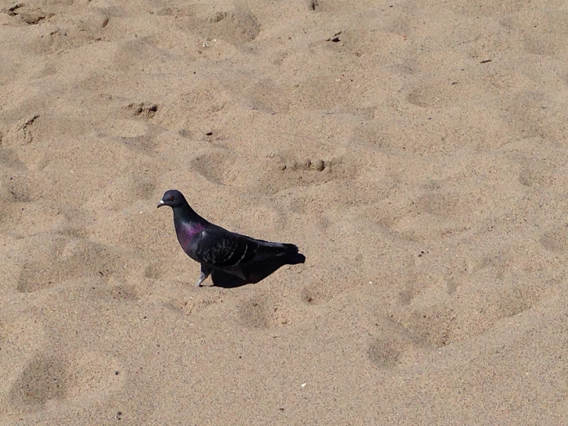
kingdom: Animalia
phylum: Chordata
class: Aves
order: Columbiformes
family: Columbidae
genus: Columba
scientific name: Columba livia
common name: Rock pigeon
